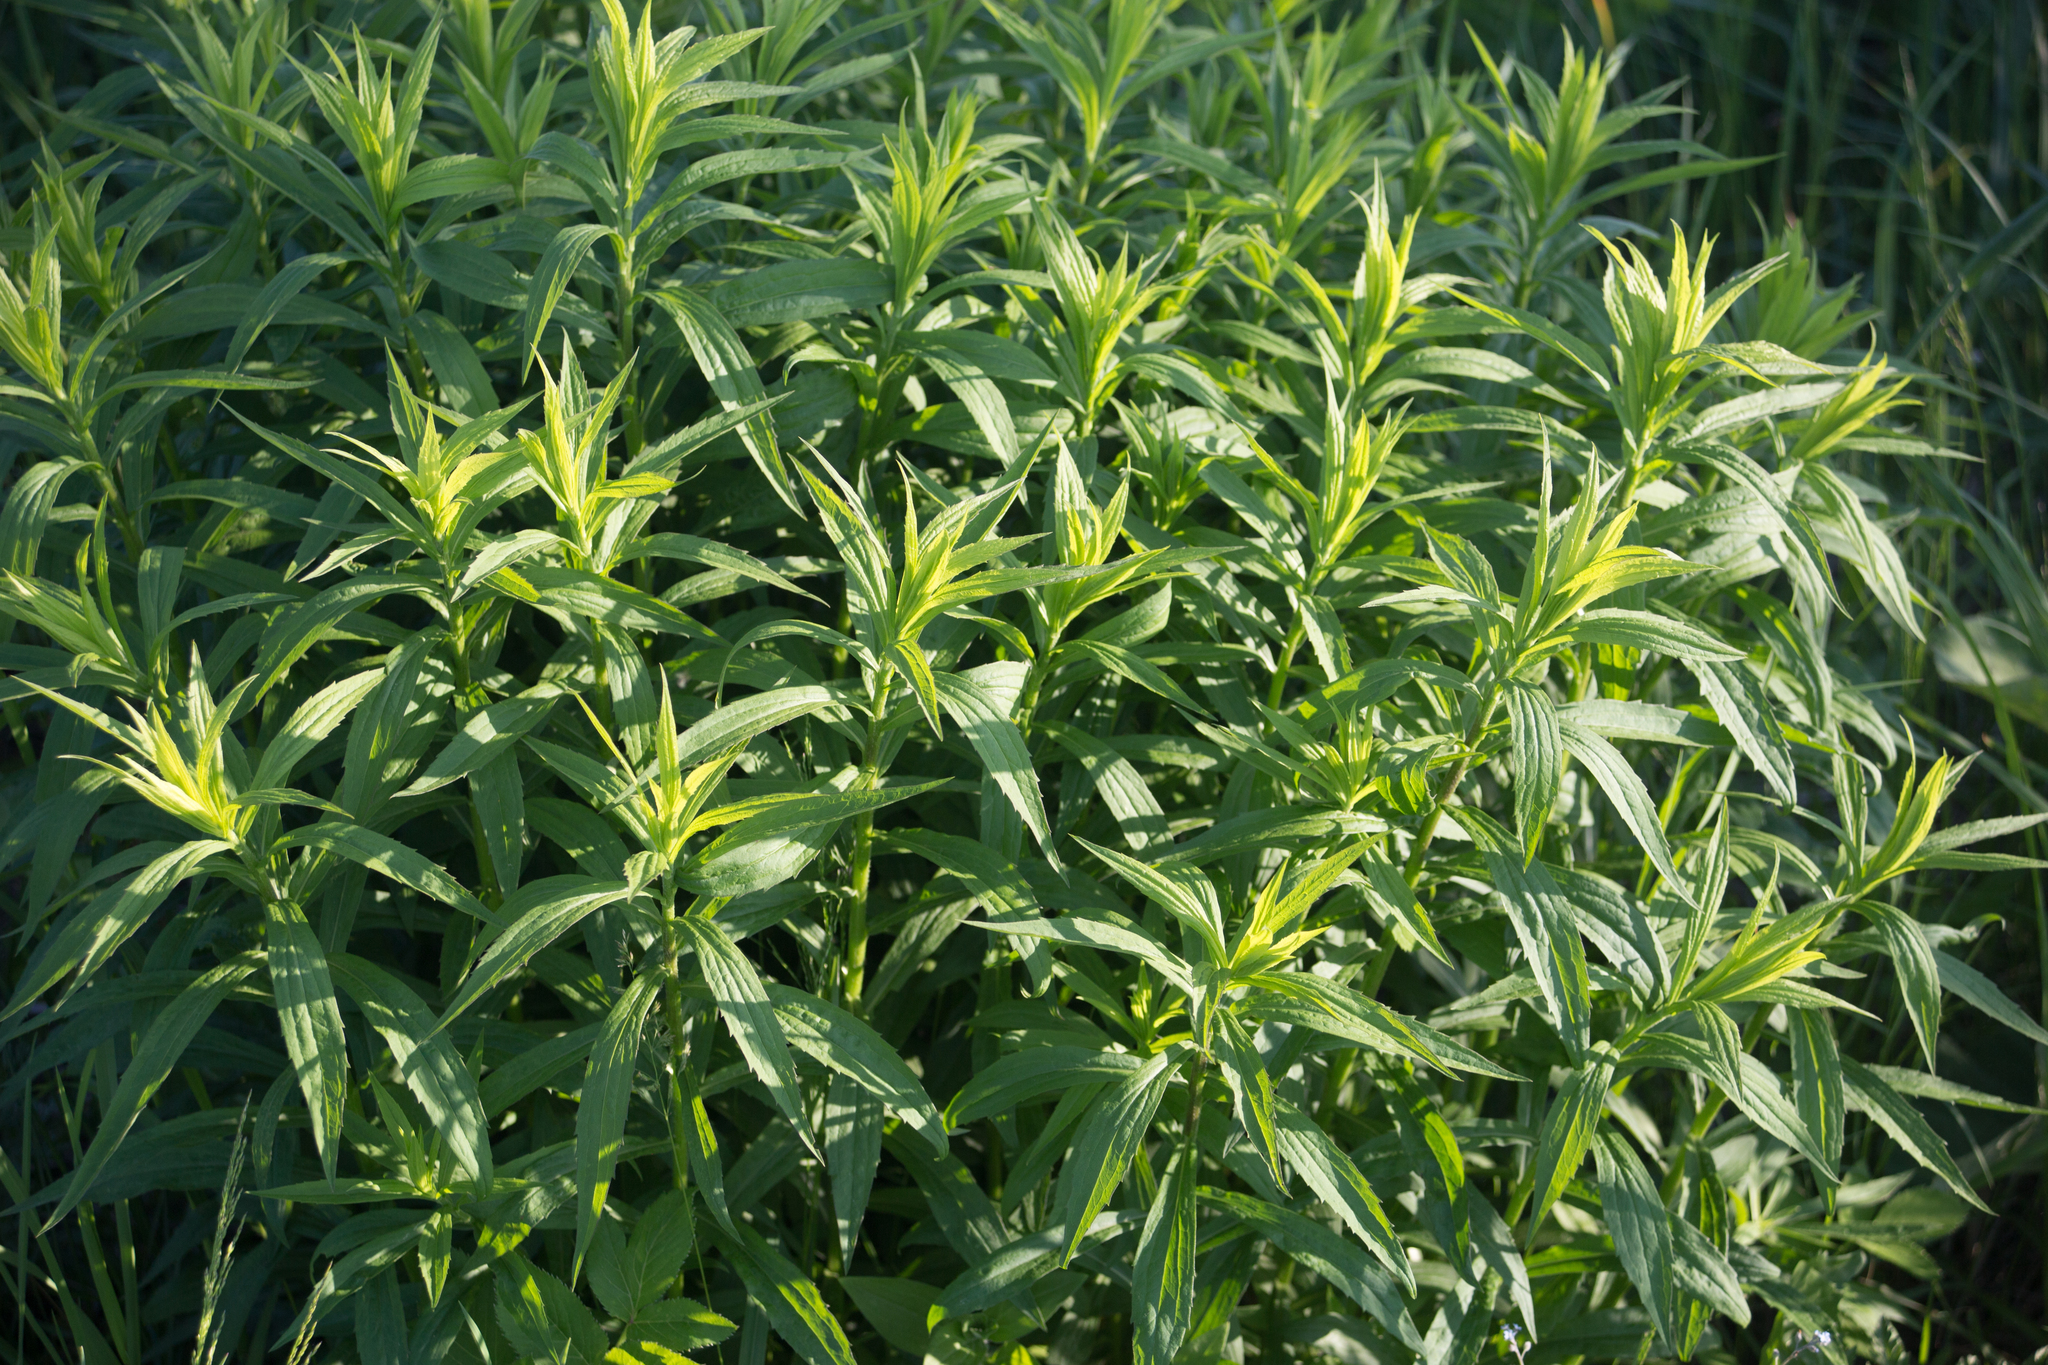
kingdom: Plantae
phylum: Tracheophyta
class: Magnoliopsida
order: Asterales
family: Asteraceae
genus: Solidago
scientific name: Solidago canadensis
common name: Canada goldenrod
